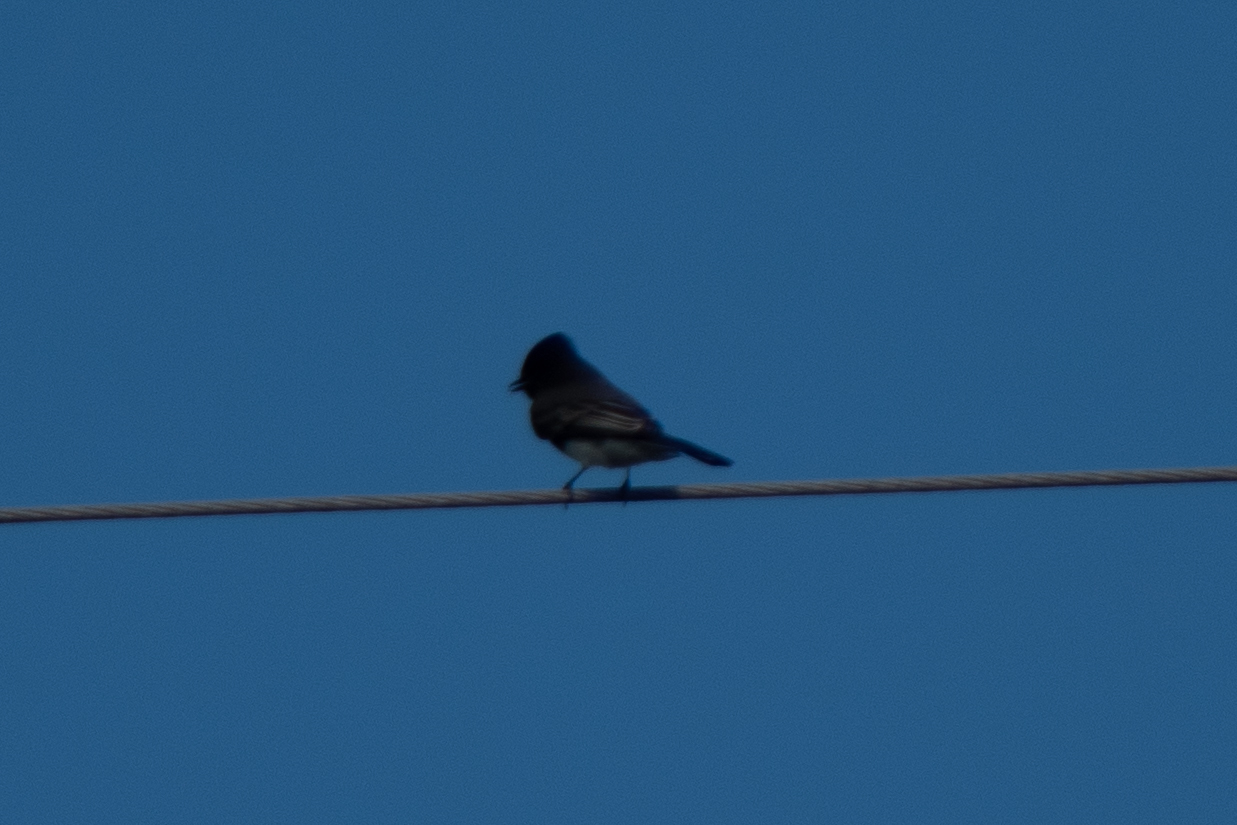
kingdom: Animalia
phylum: Chordata
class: Aves
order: Passeriformes
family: Tyrannidae
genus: Sayornis
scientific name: Sayornis nigricans
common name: Black phoebe
